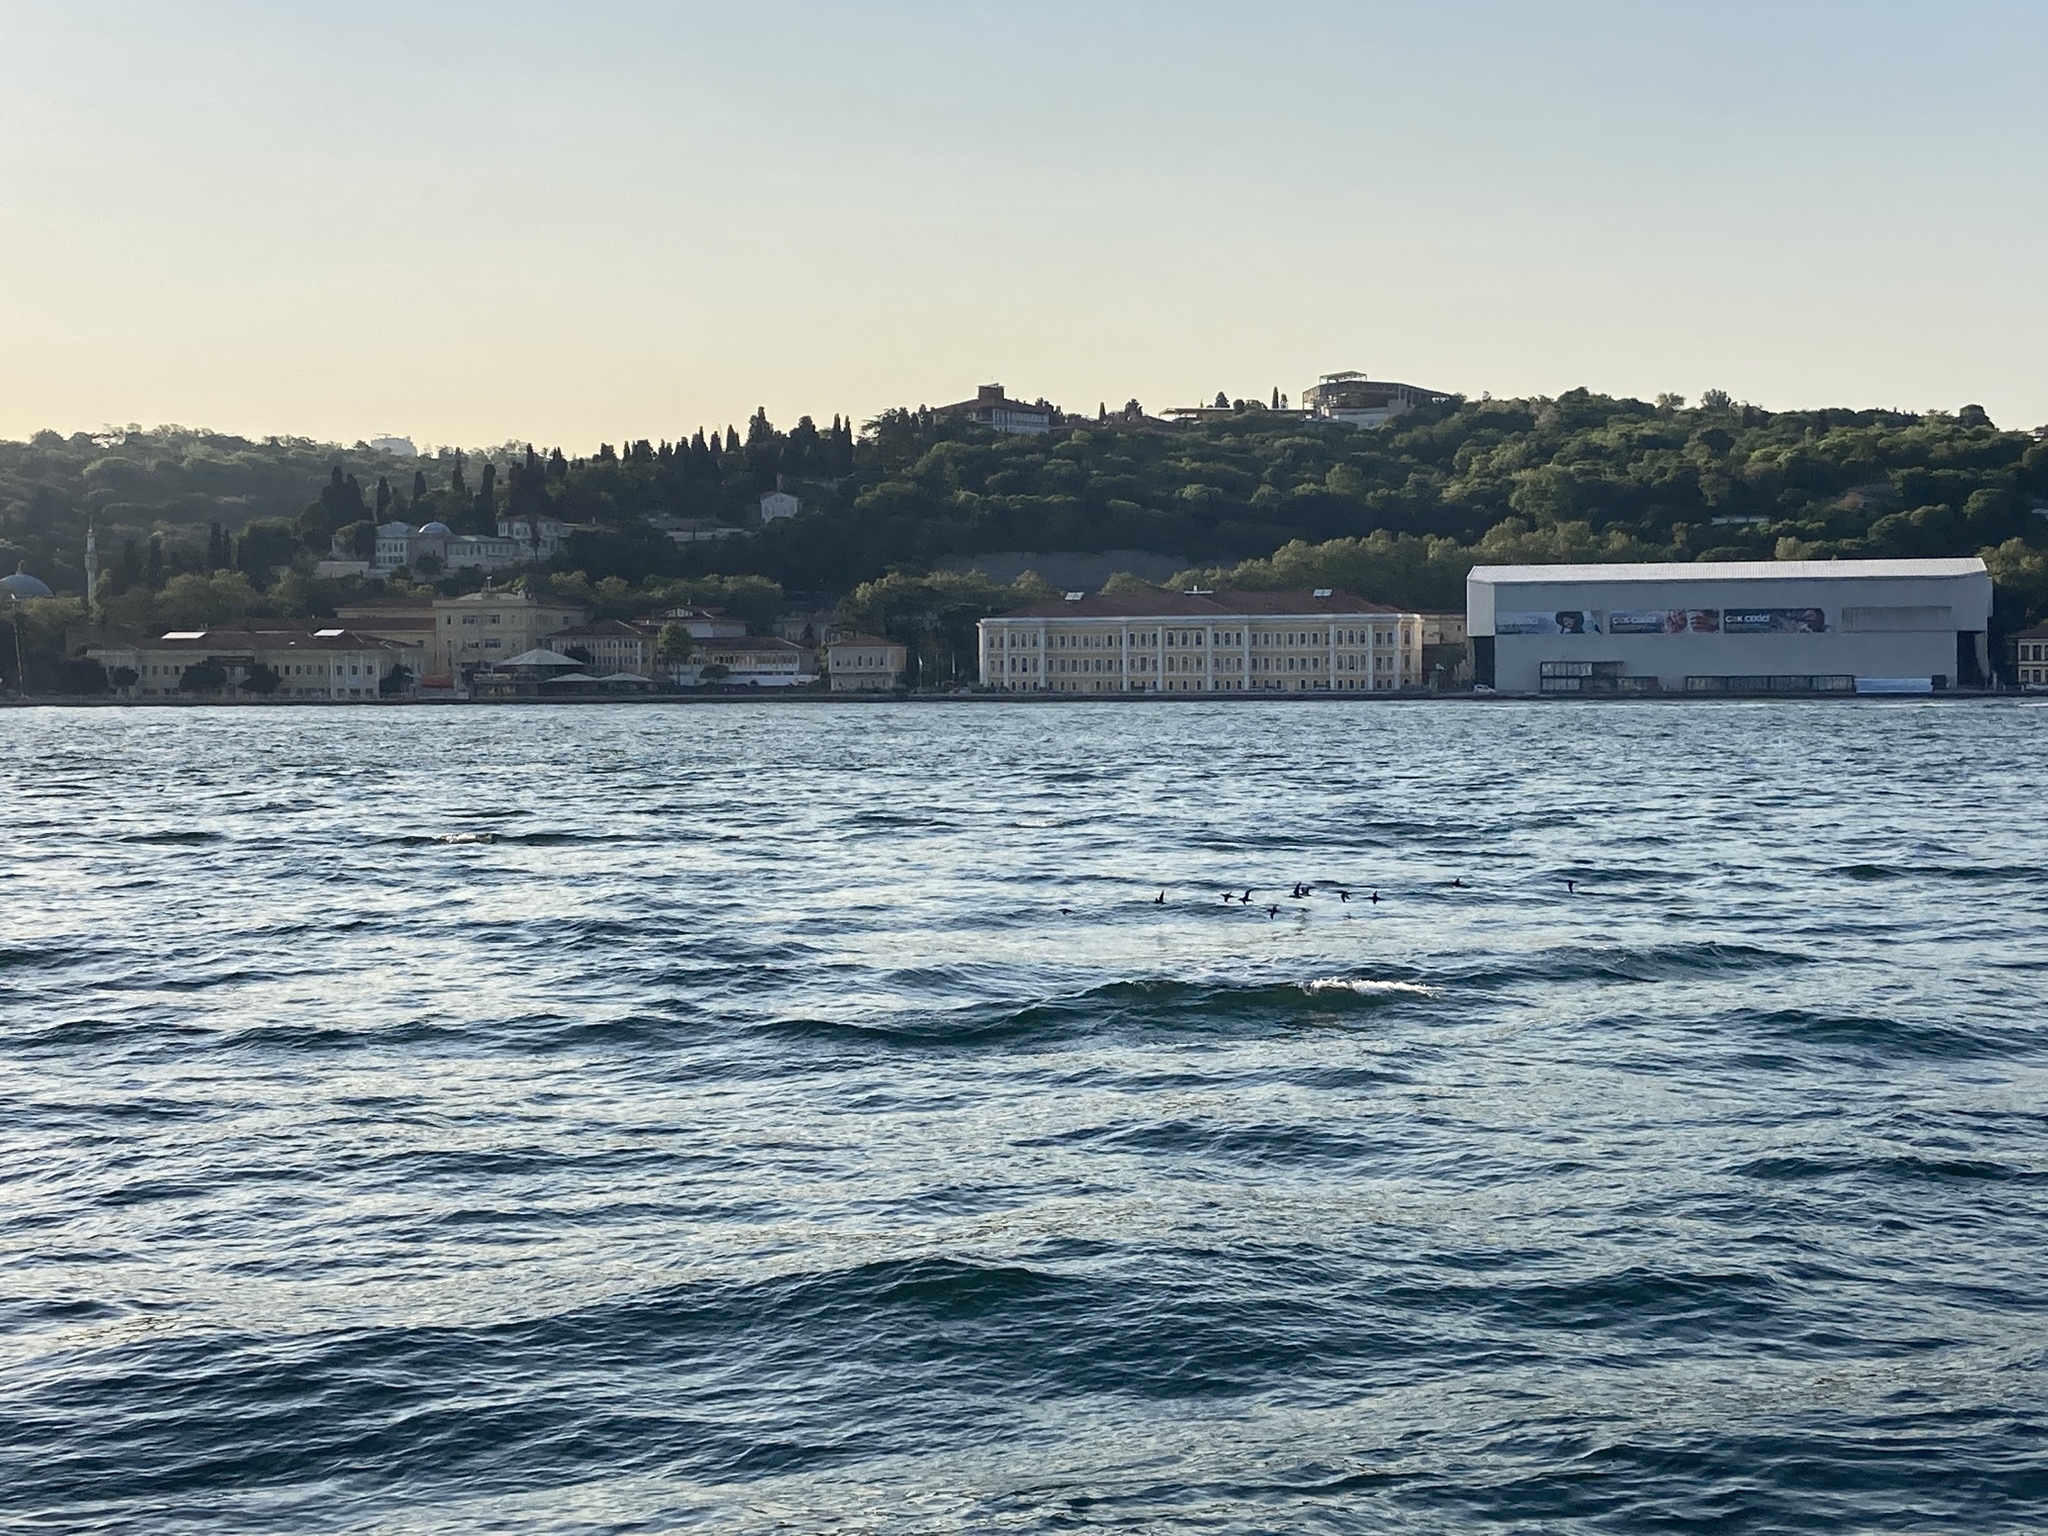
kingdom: Animalia
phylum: Chordata
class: Aves
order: Procellariiformes
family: Procellariidae
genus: Puffinus
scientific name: Puffinus yelkouan
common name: Yelkouan shearwater
